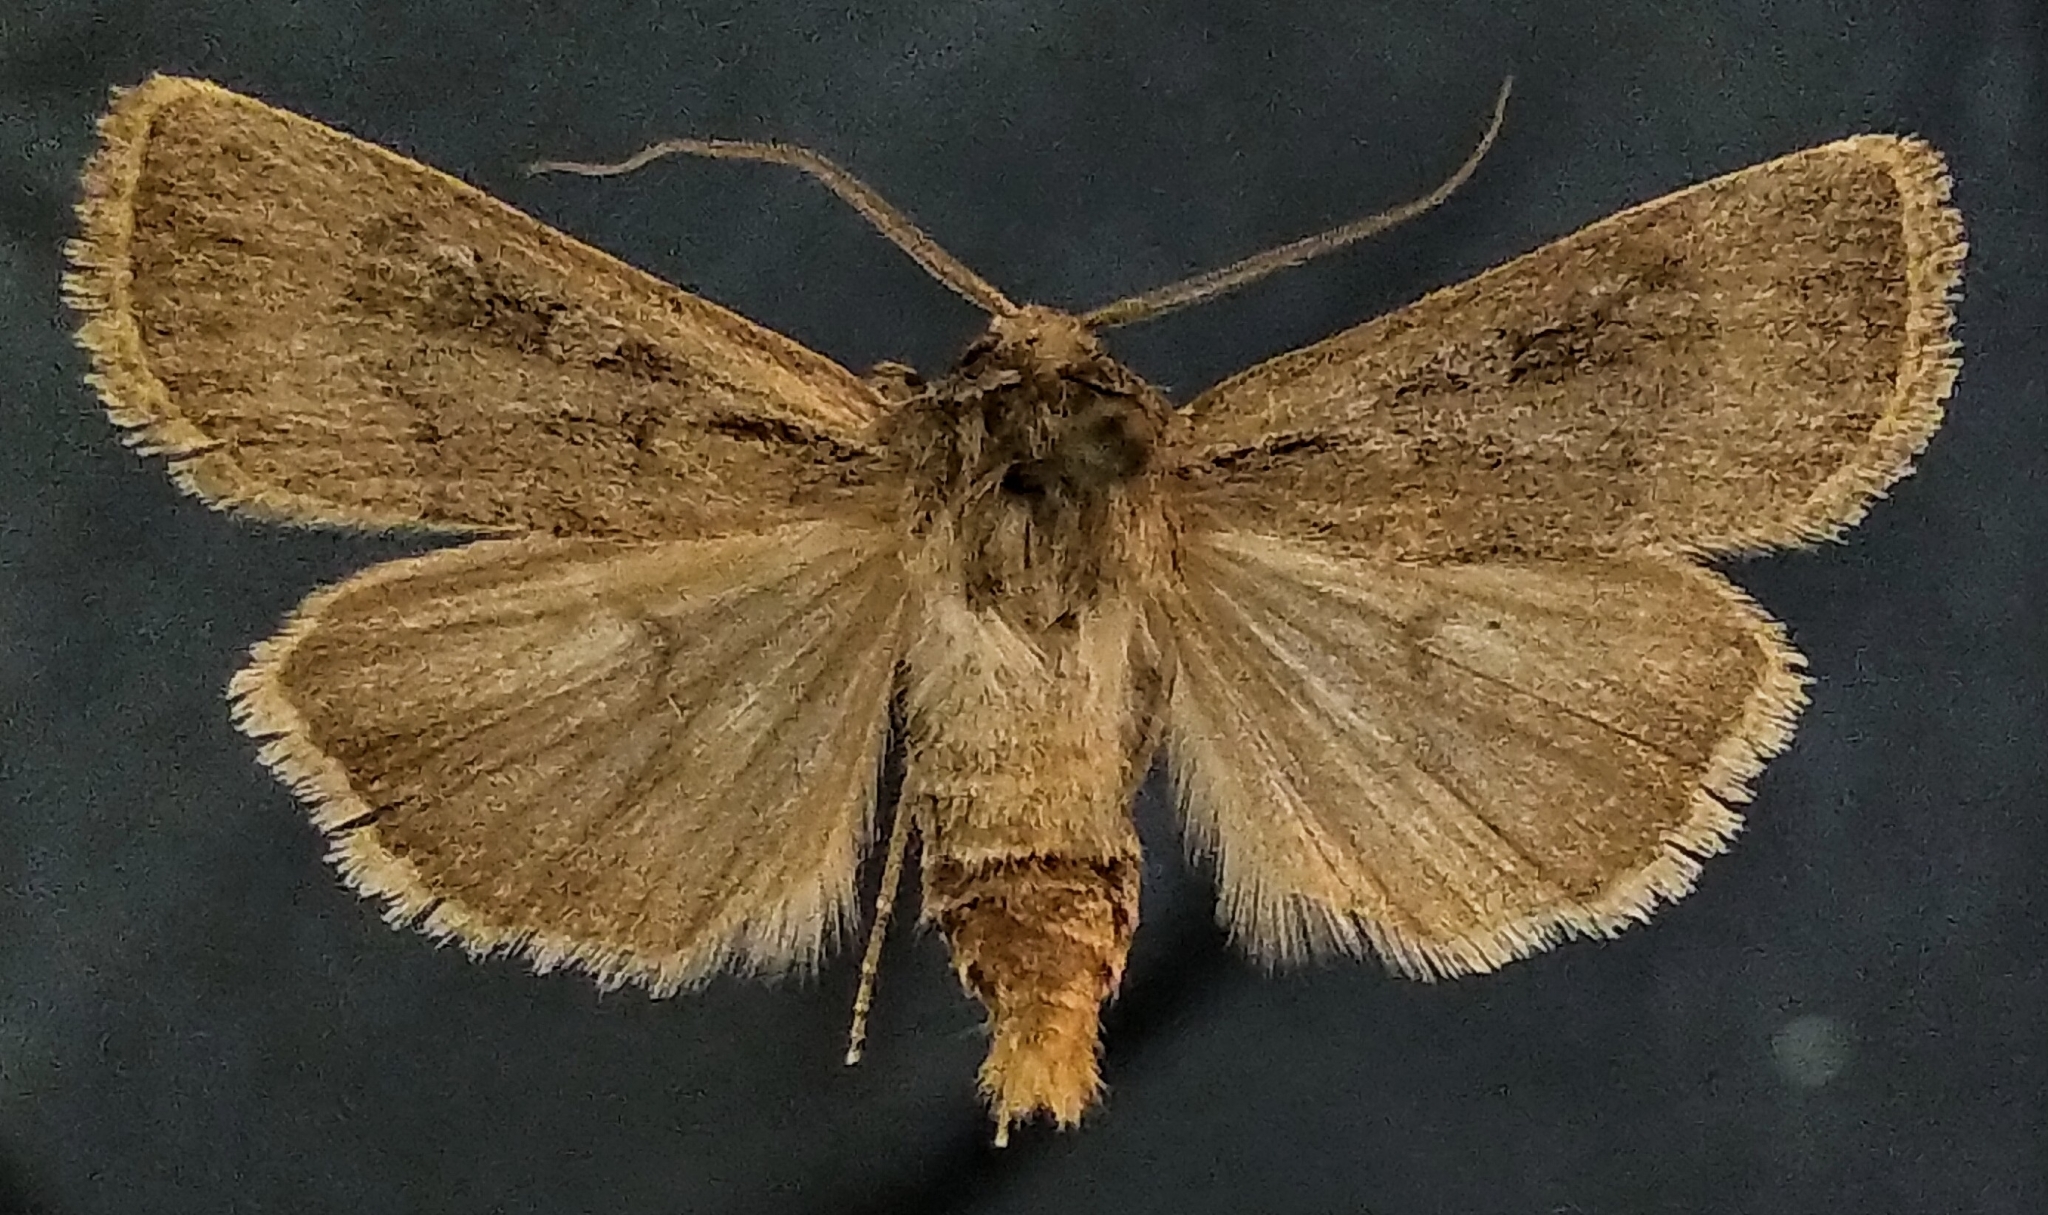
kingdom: Animalia
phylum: Arthropoda
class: Insecta
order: Lepidoptera
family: Noctuidae
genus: Euxoa
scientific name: Euxoa clausa
